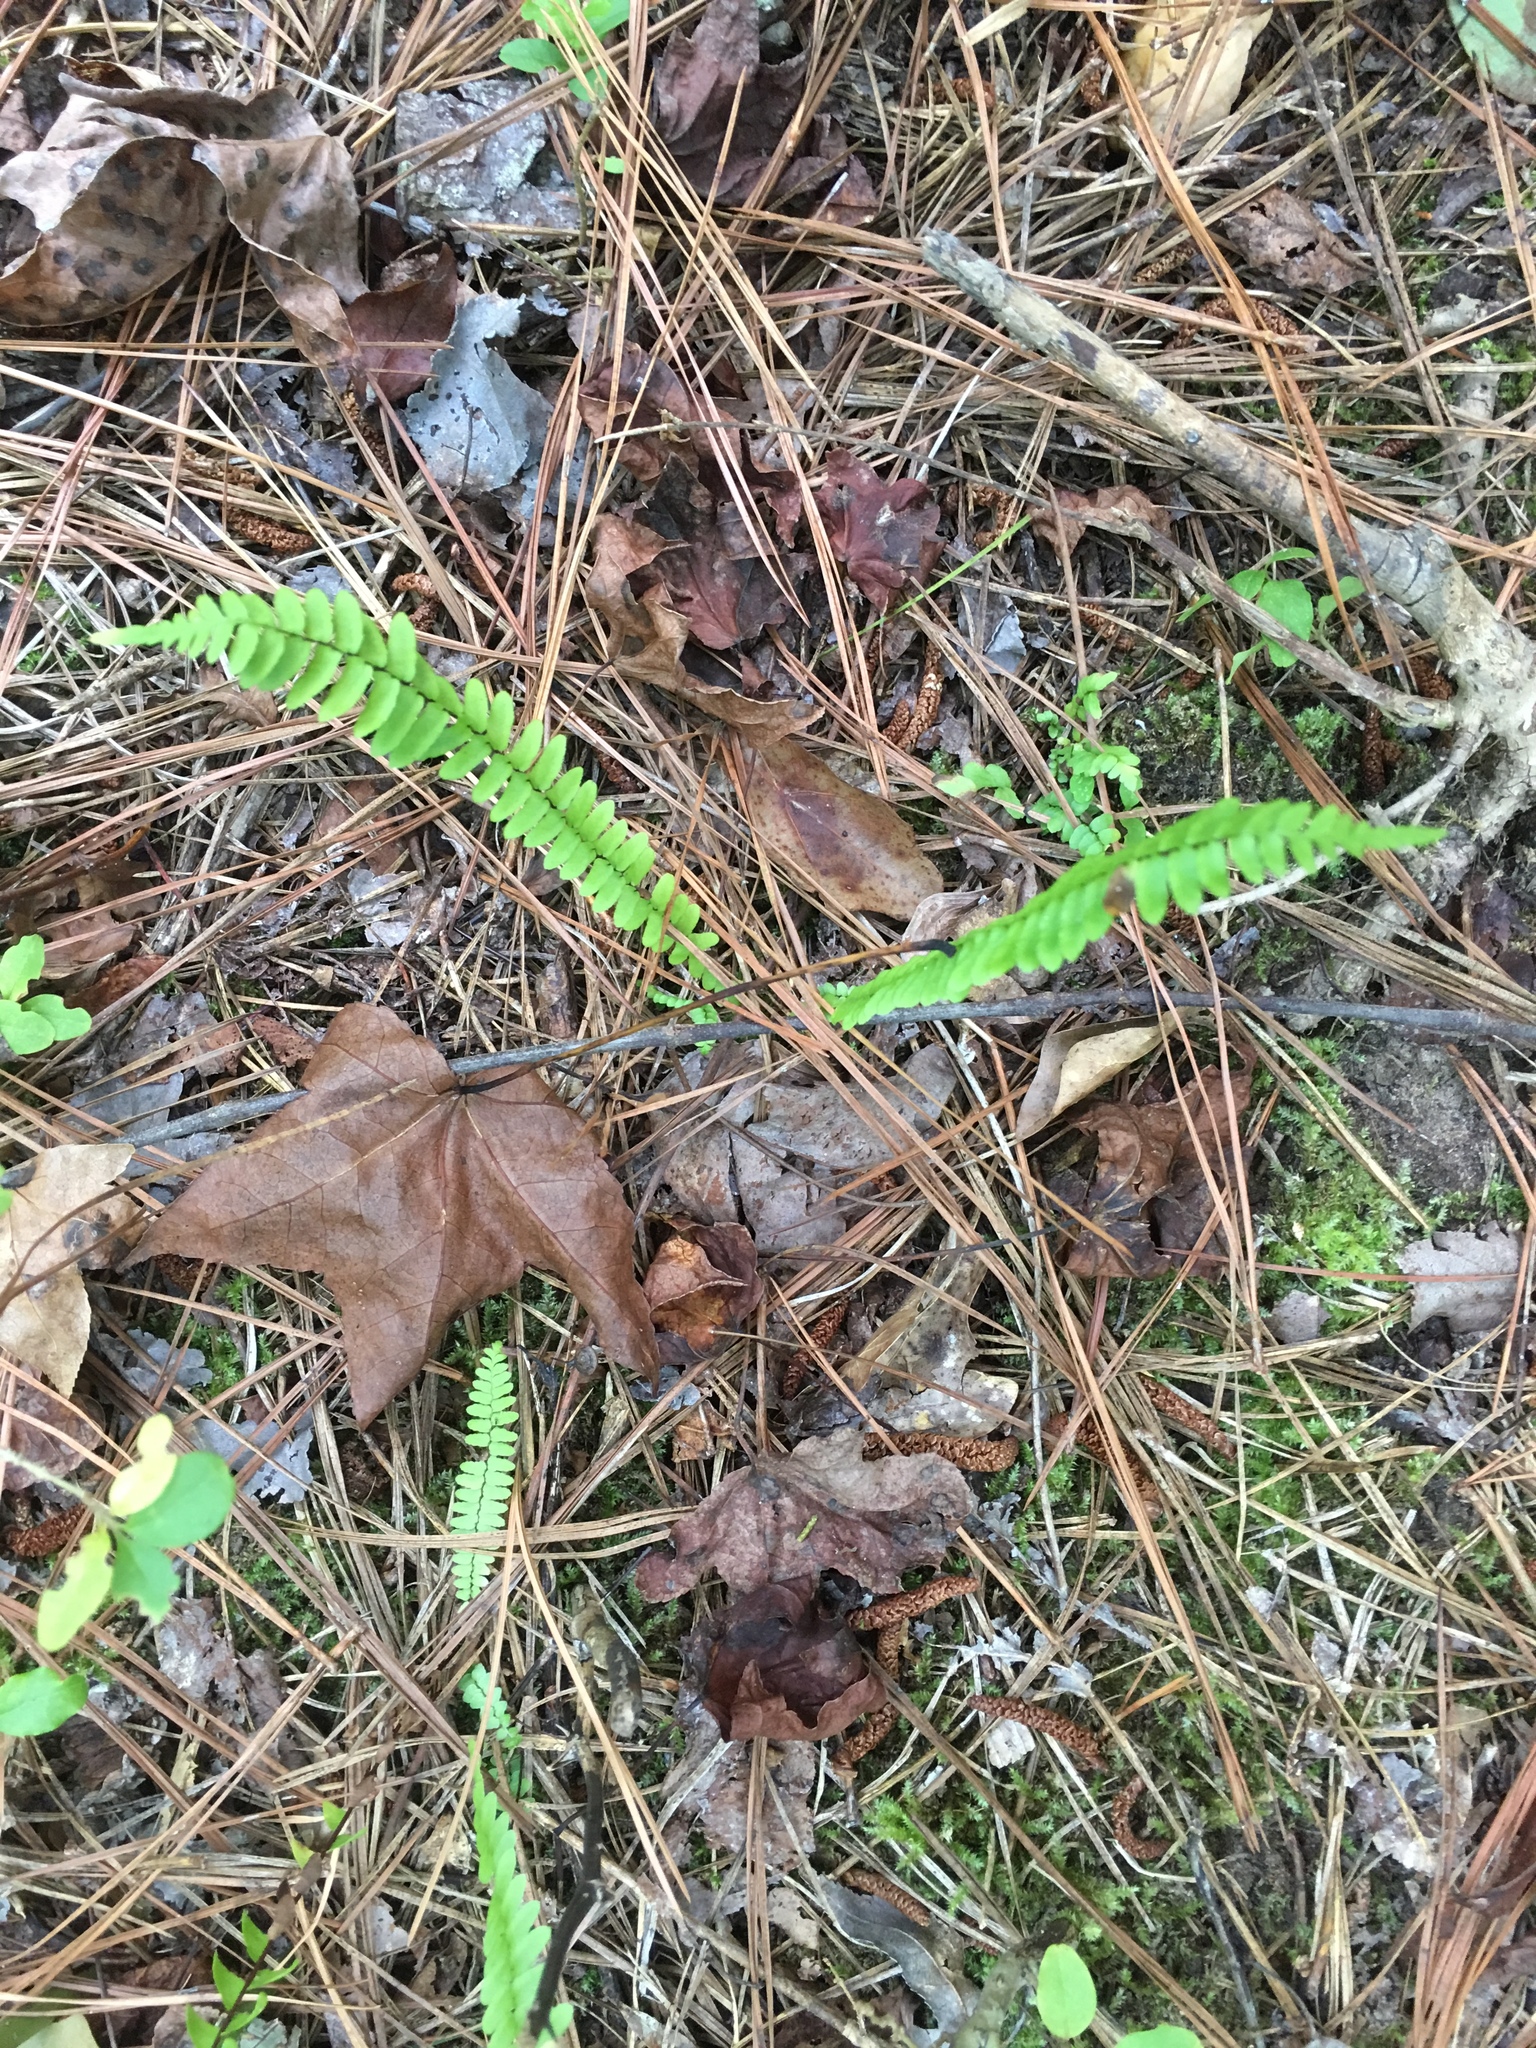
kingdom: Plantae
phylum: Tracheophyta
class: Polypodiopsida
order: Polypodiales
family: Aspleniaceae
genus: Asplenium
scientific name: Asplenium platyneuron
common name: Ebony spleenwort
